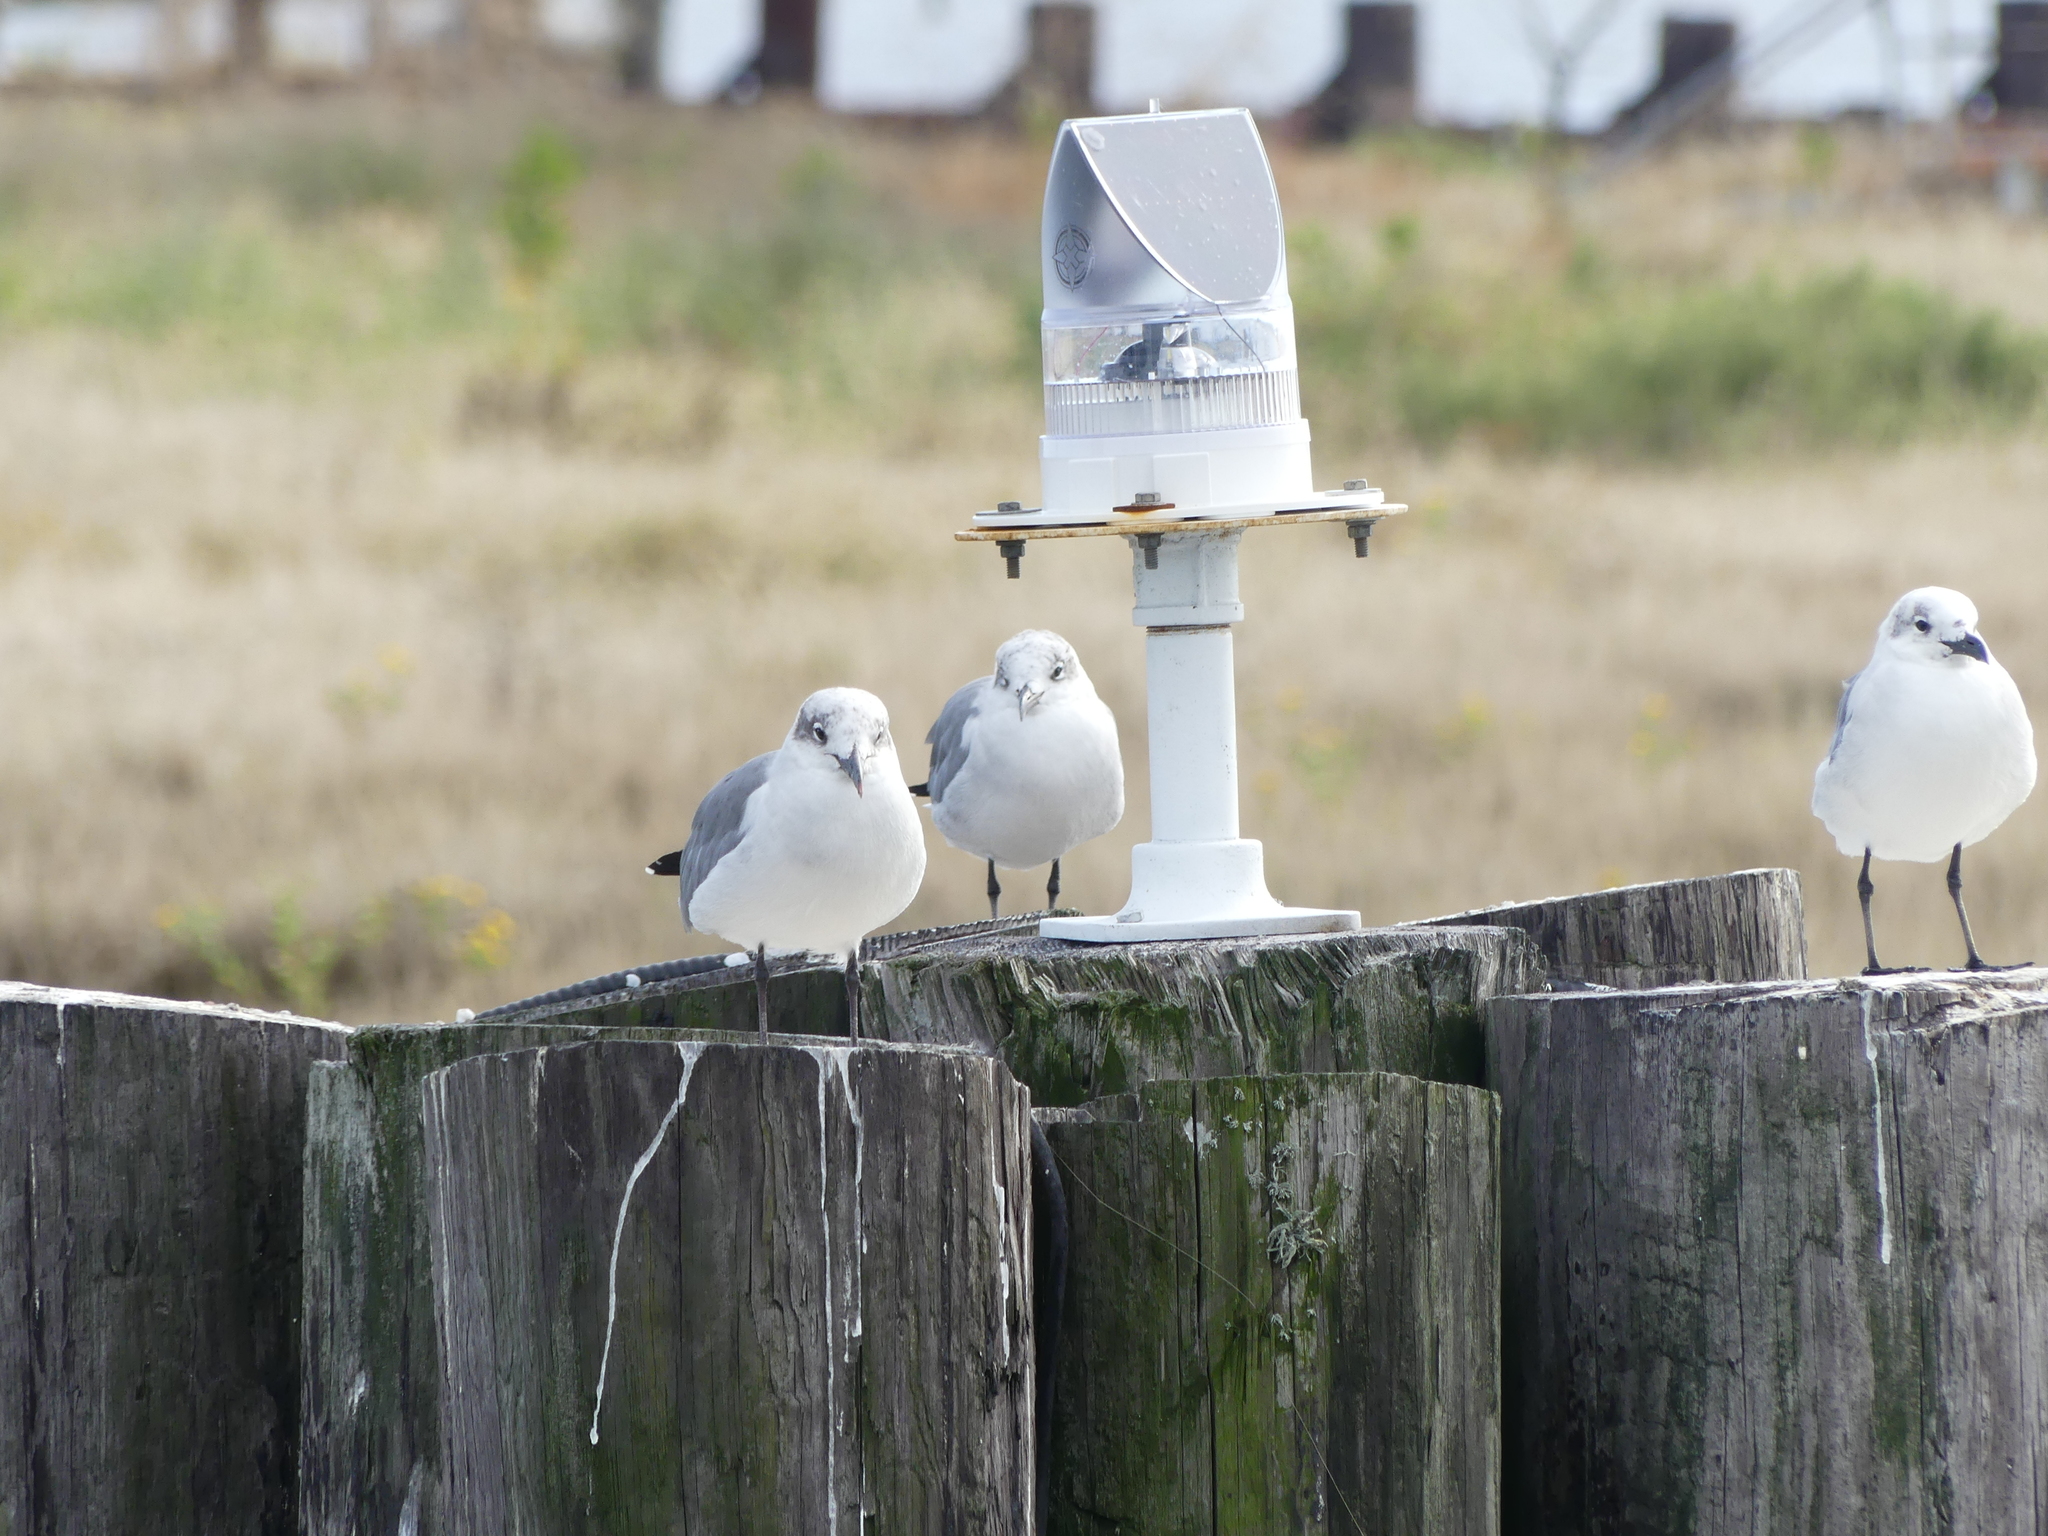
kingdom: Animalia
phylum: Chordata
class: Aves
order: Charadriiformes
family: Laridae
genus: Leucophaeus
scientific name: Leucophaeus atricilla
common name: Laughing gull
